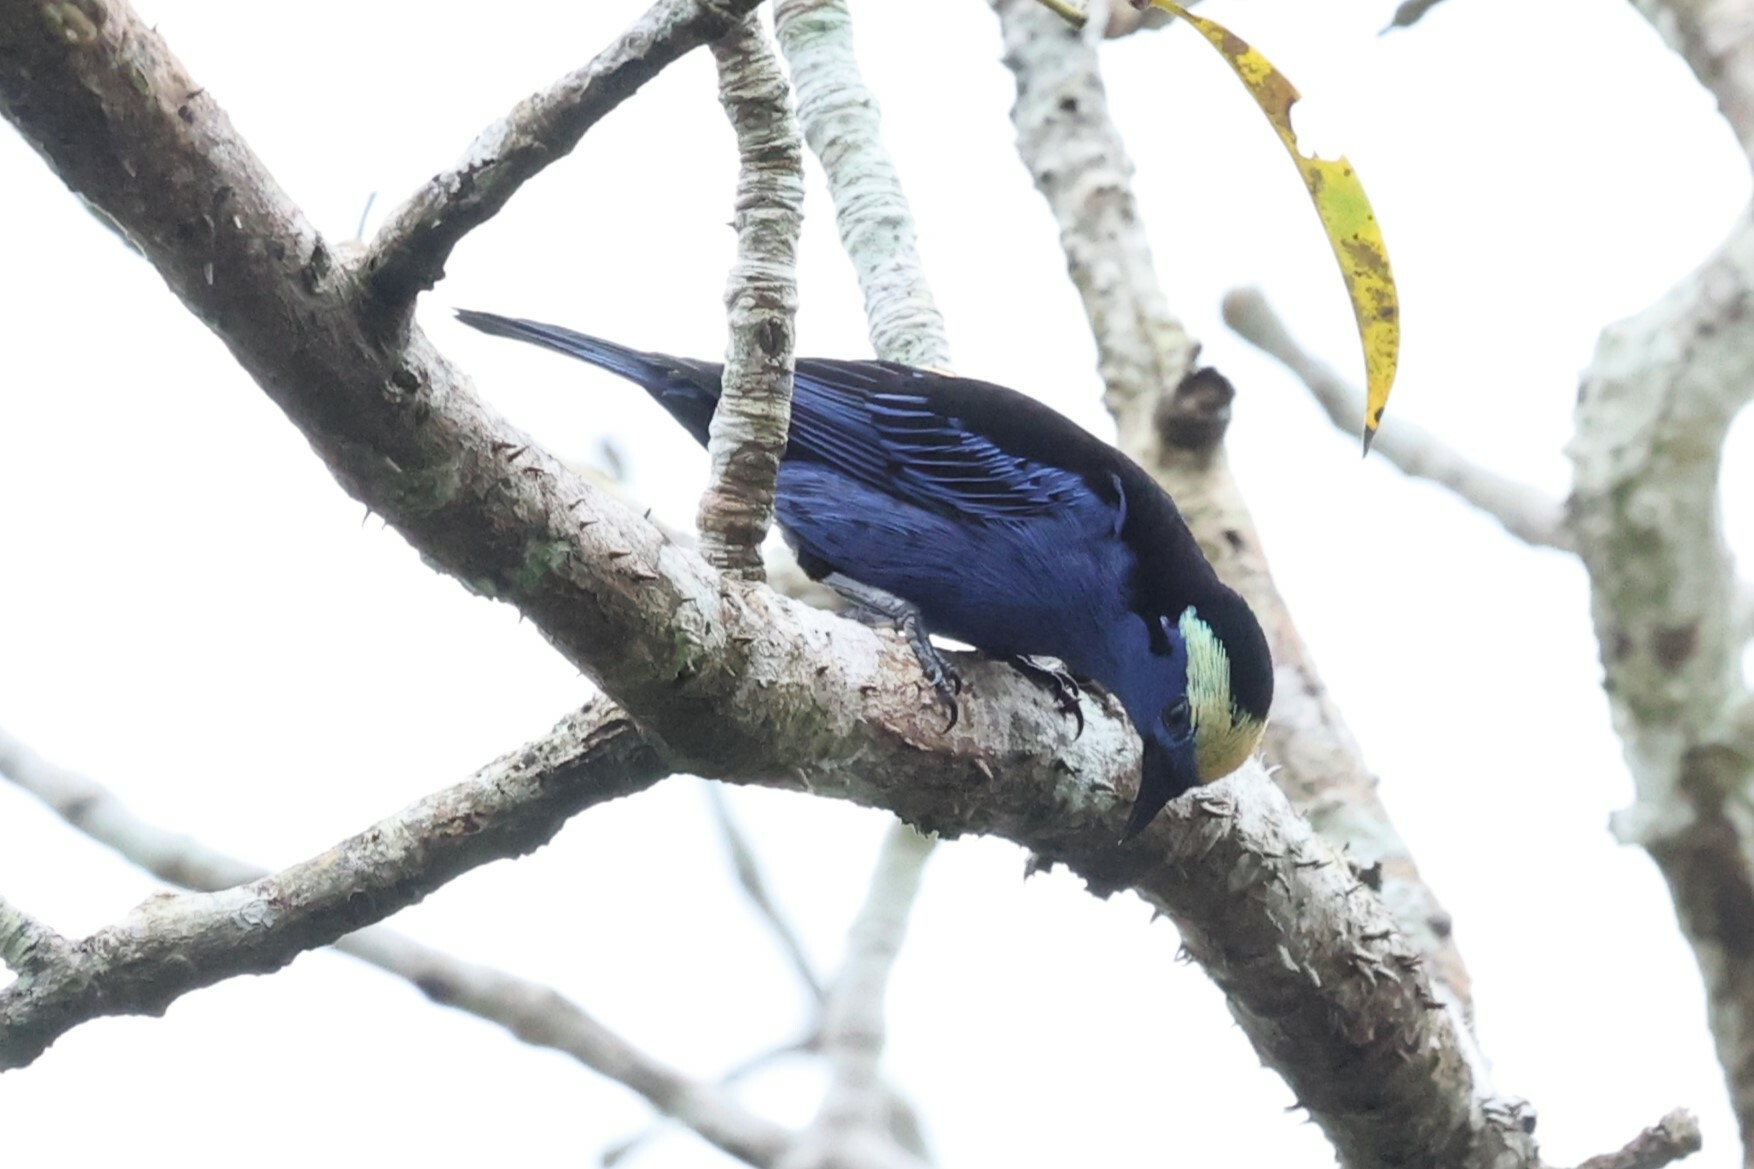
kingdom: Animalia
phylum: Chordata
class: Aves
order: Passeriformes
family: Thraupidae
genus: Tangara
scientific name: Tangara callophrys
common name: Opal-crowned tanager
